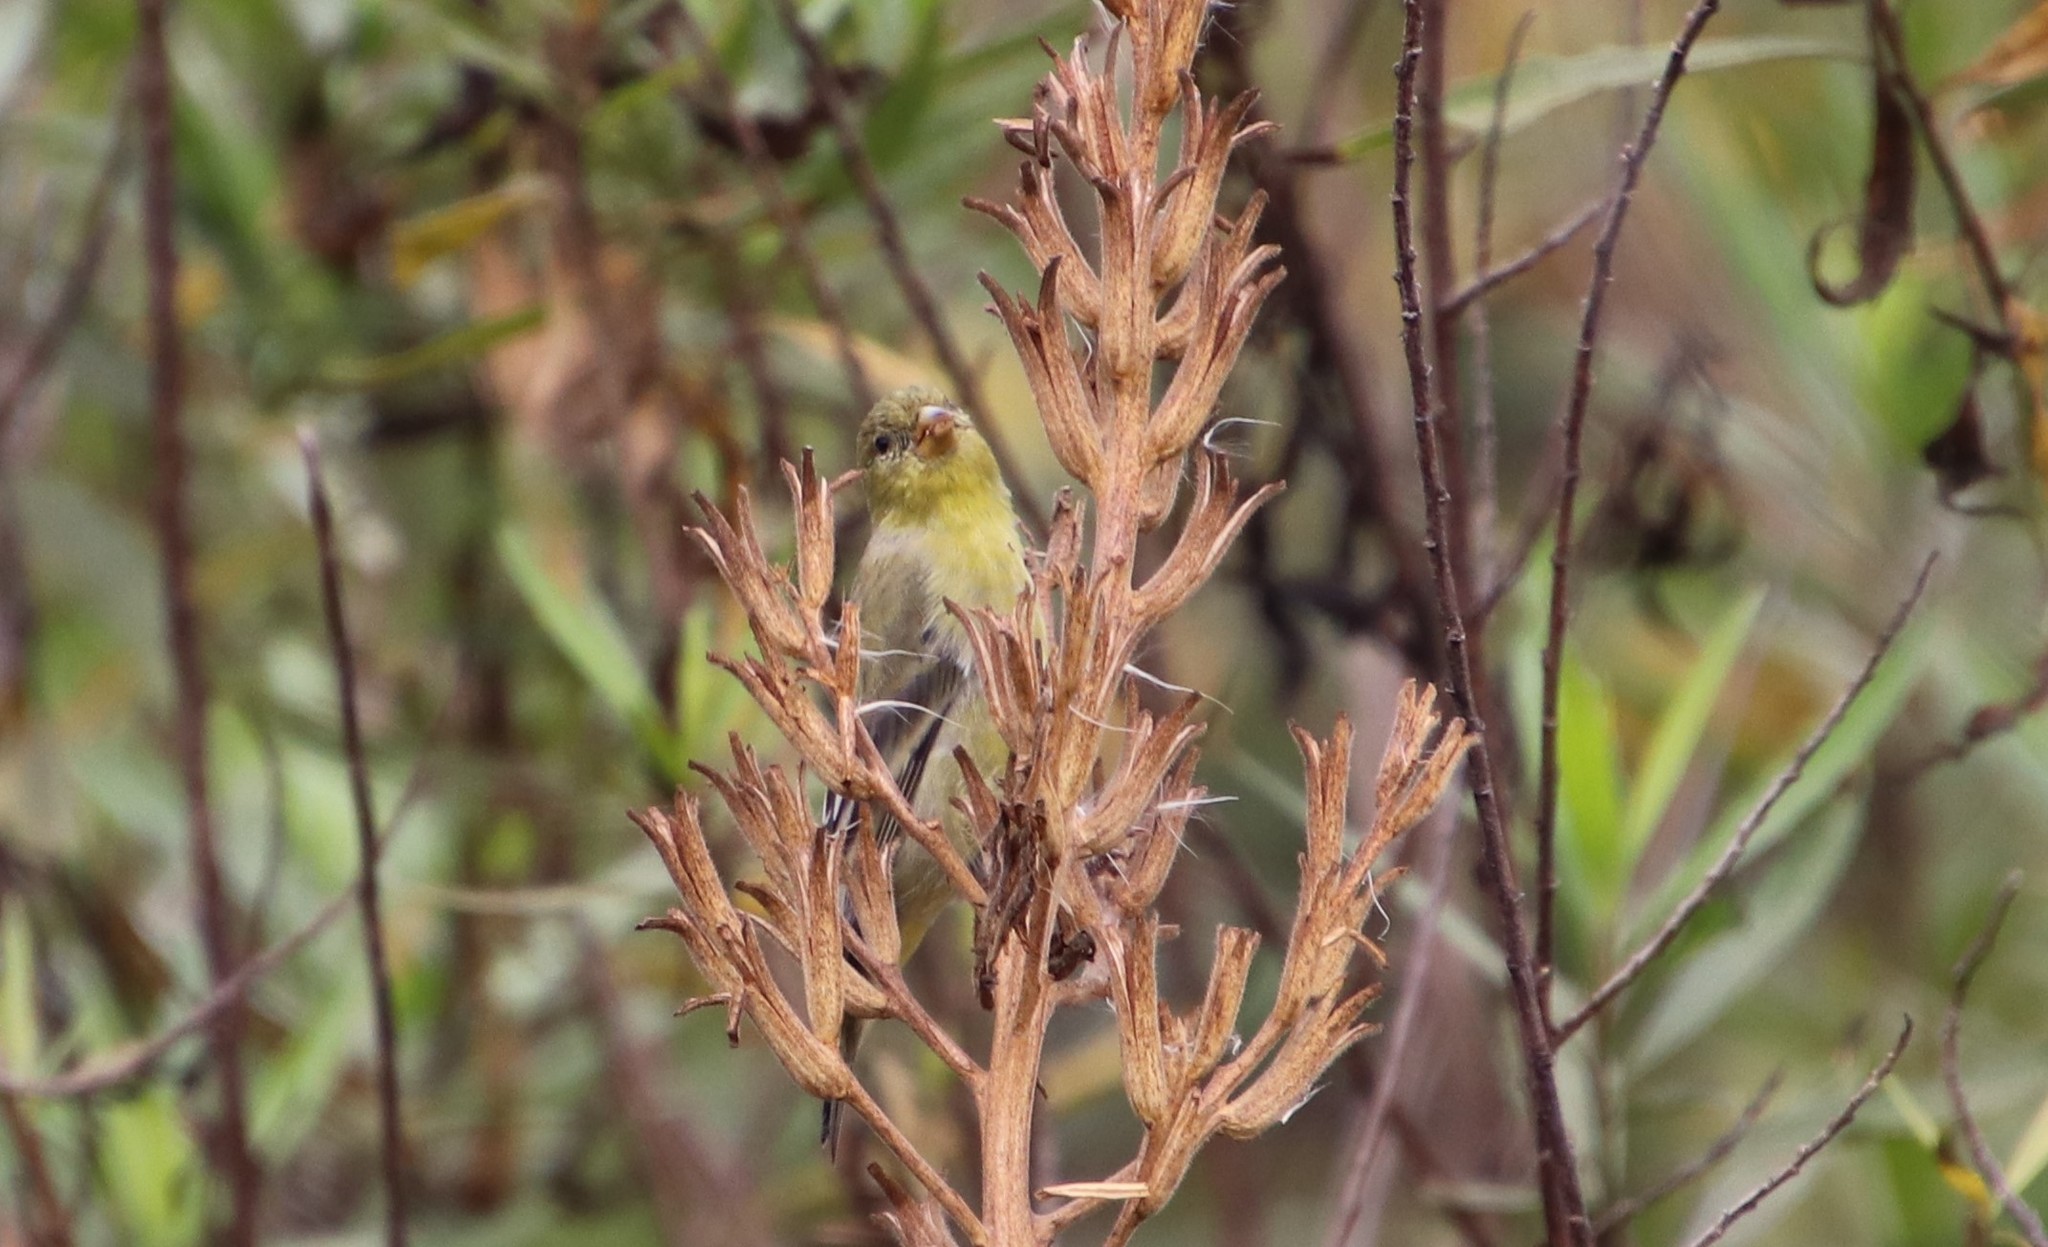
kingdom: Animalia
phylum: Chordata
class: Aves
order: Passeriformes
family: Fringillidae
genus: Spinus
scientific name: Spinus psaltria
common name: Lesser goldfinch
